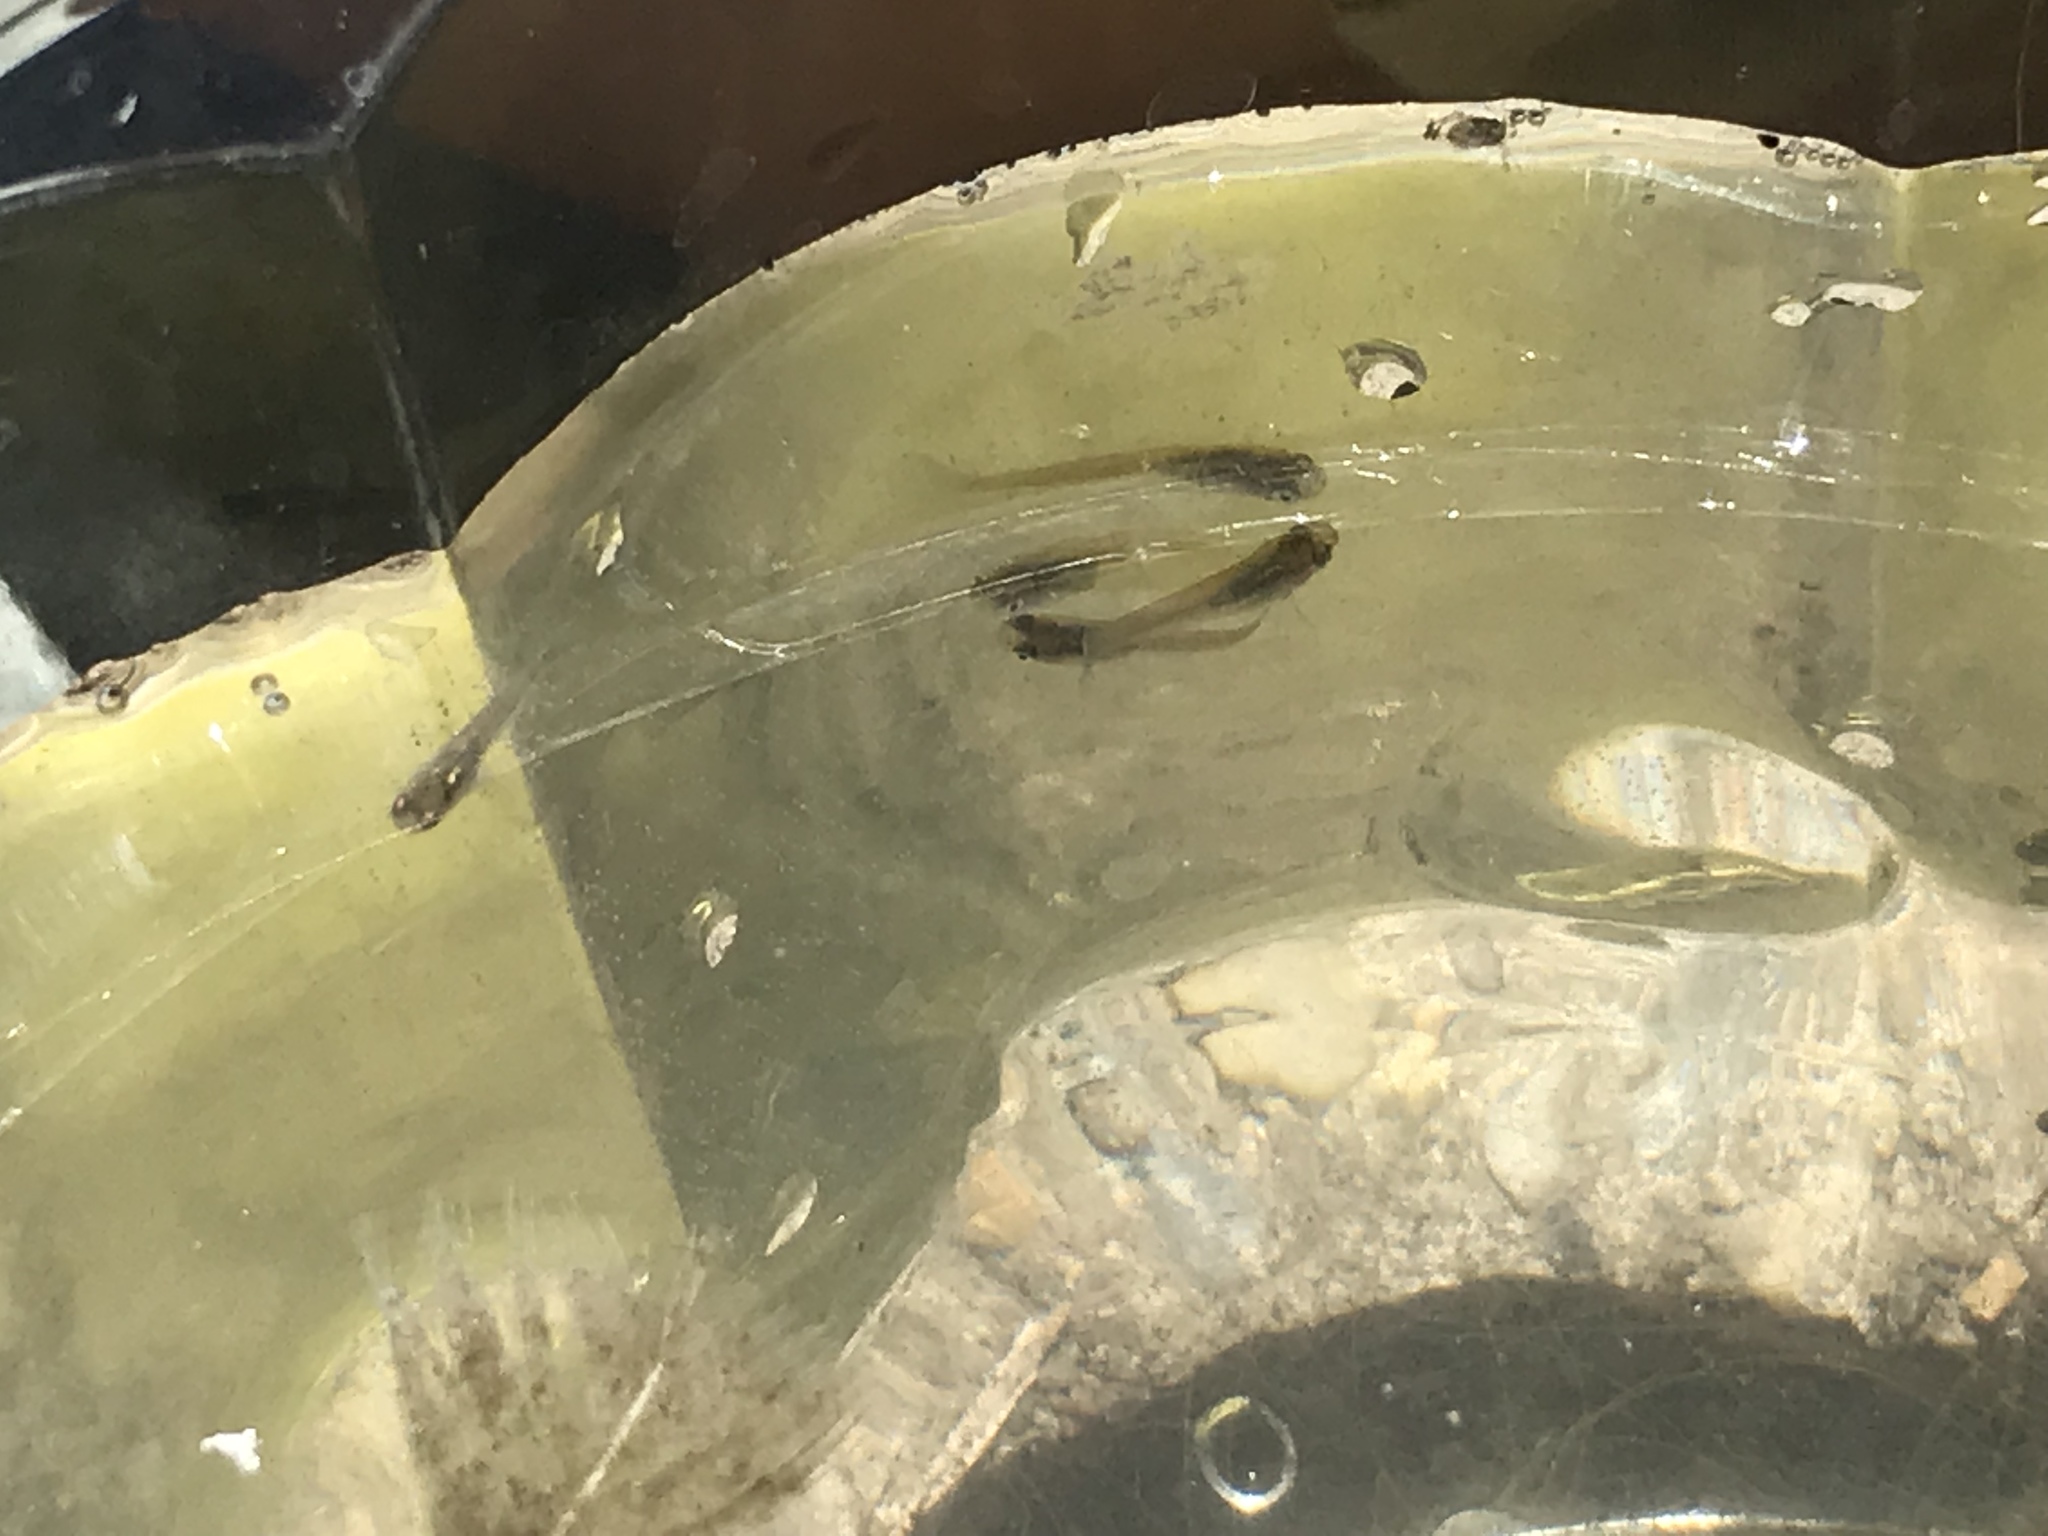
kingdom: Animalia
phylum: Chordata
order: Cyprinodontiformes
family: Poeciliidae
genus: Gambusia
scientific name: Gambusia affinis
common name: Mosquitofish
